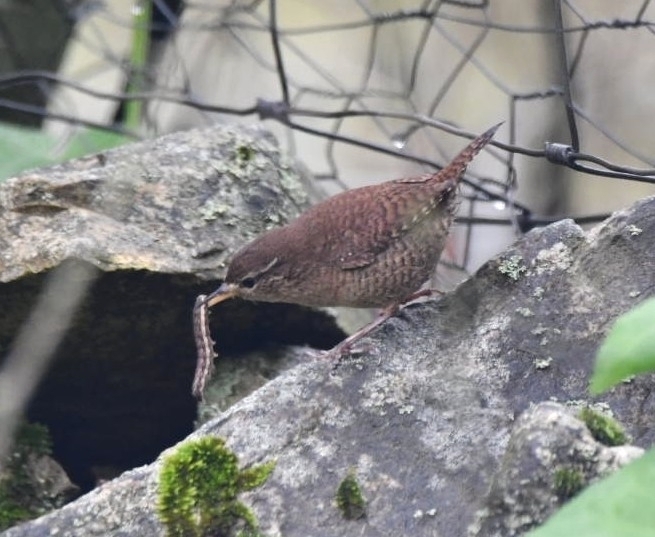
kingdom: Animalia
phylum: Chordata
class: Aves
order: Passeriformes
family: Troglodytidae
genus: Troglodytes
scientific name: Troglodytes troglodytes
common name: Eurasian wren
